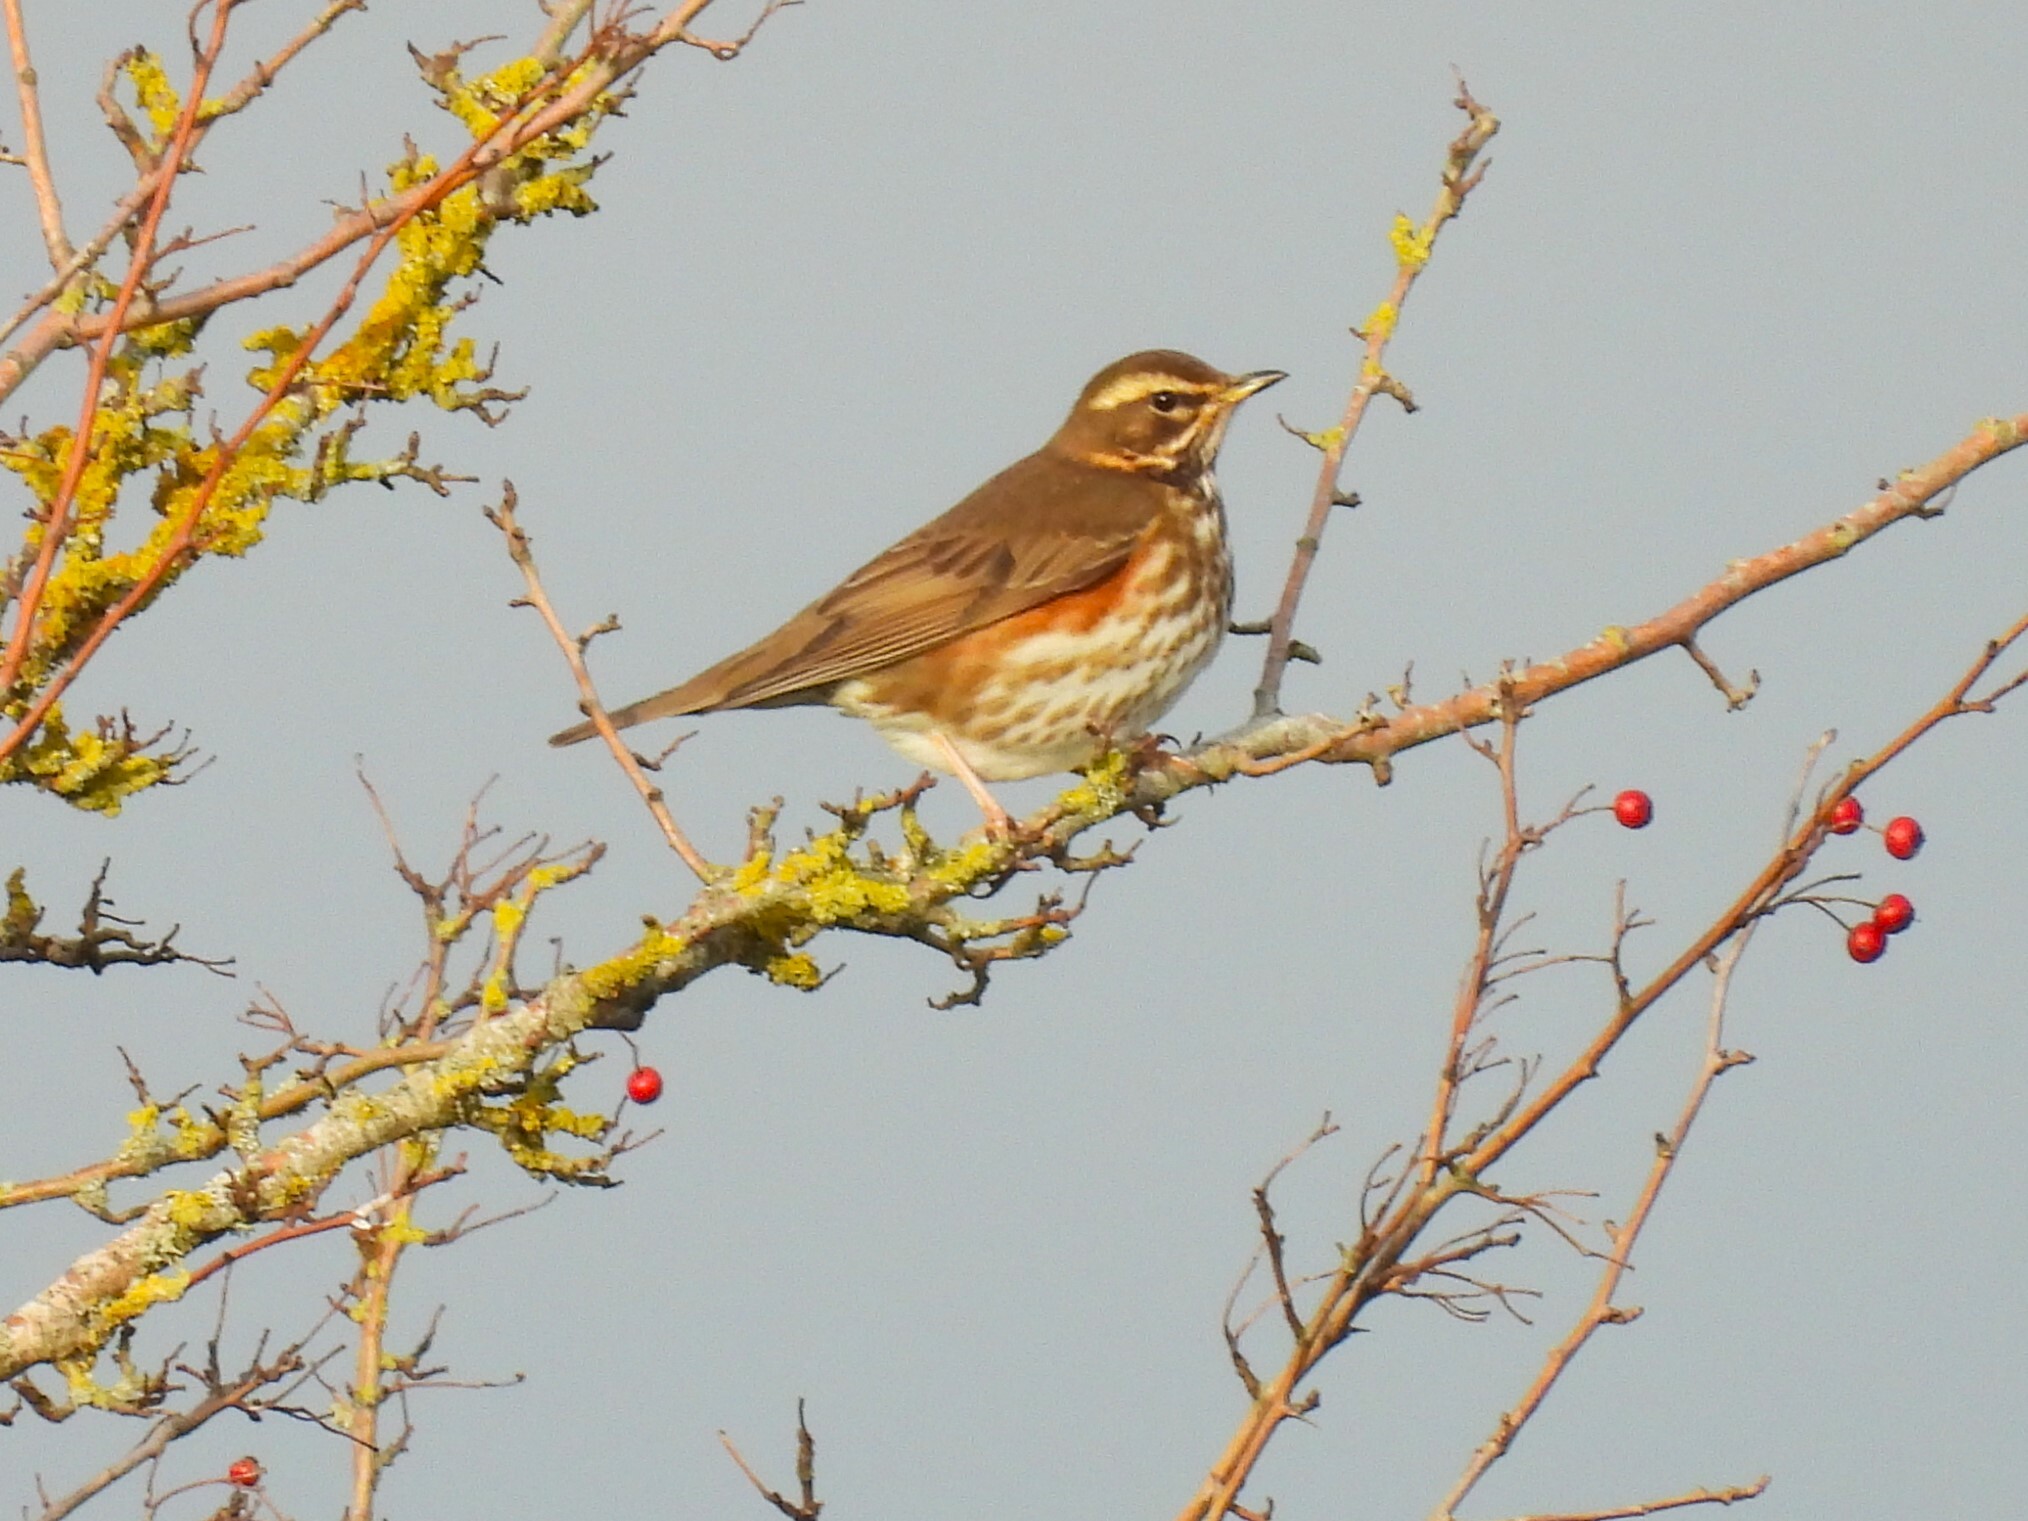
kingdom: Animalia
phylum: Chordata
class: Aves
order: Passeriformes
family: Turdidae
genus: Turdus
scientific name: Turdus iliacus
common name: Redwing
